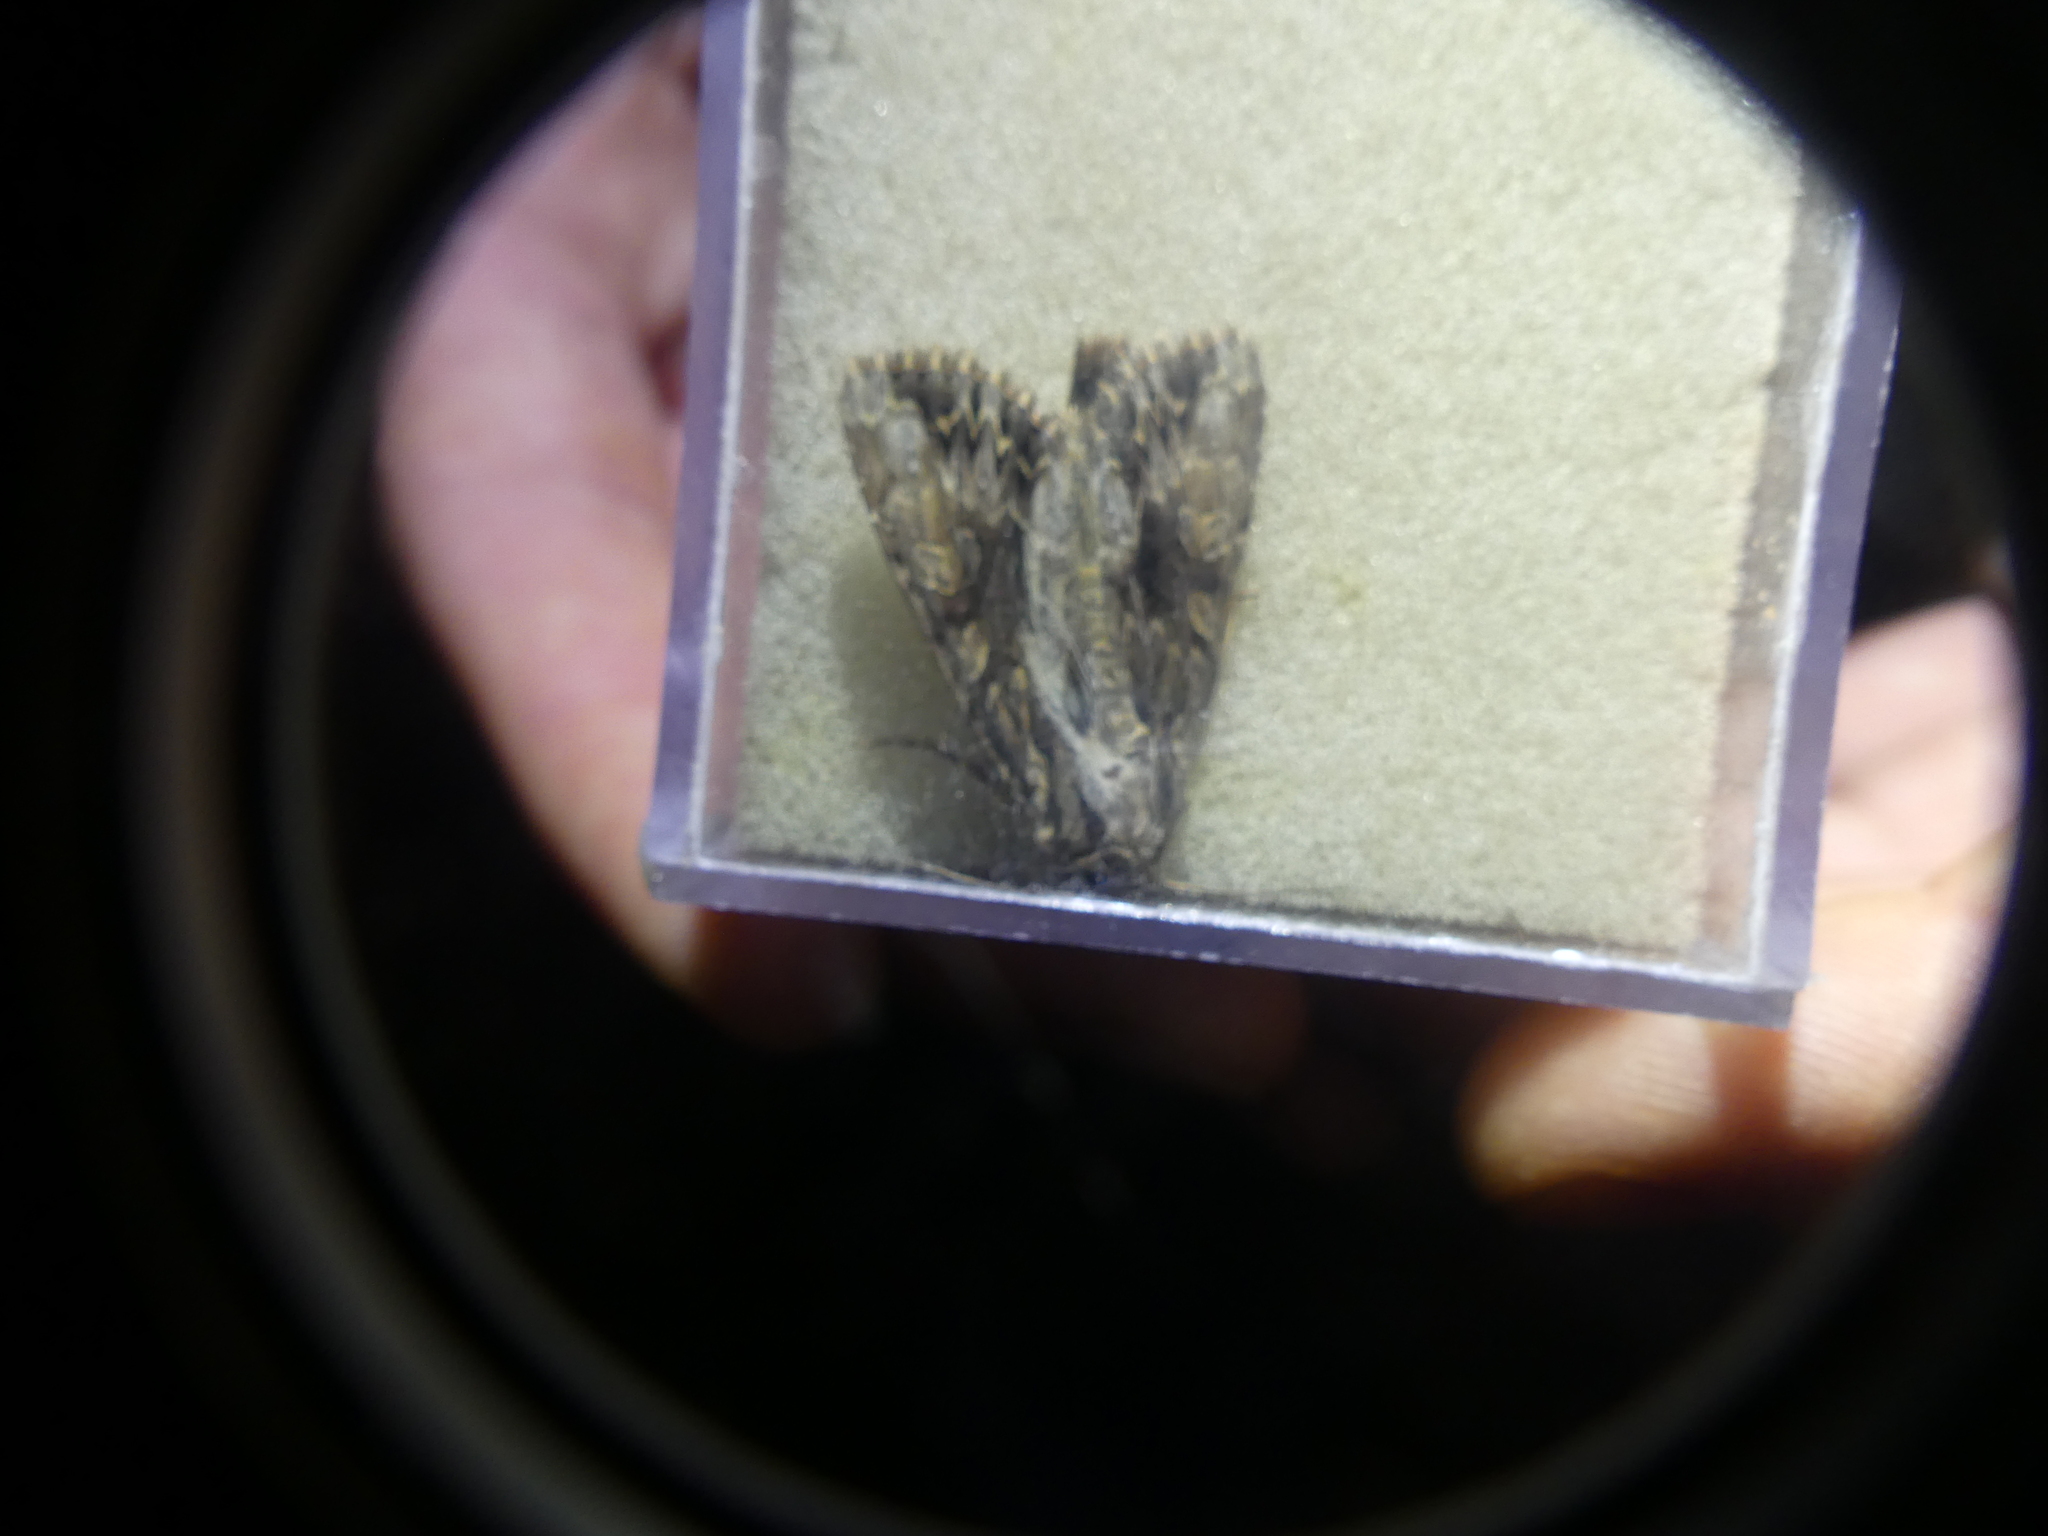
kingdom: Animalia
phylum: Arthropoda
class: Insecta
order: Lepidoptera
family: Noctuidae
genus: Apamea
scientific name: Apamea monoglypha
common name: Dark arches
